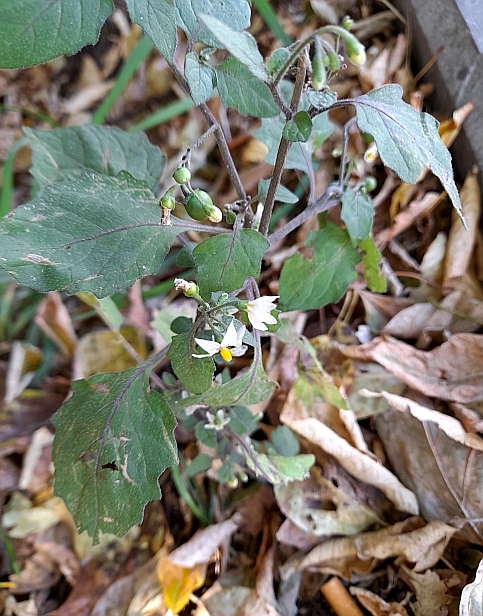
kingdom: Plantae
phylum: Tracheophyta
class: Magnoliopsida
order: Solanales
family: Solanaceae
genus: Solanum
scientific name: Solanum nigrum
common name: Black nightshade
